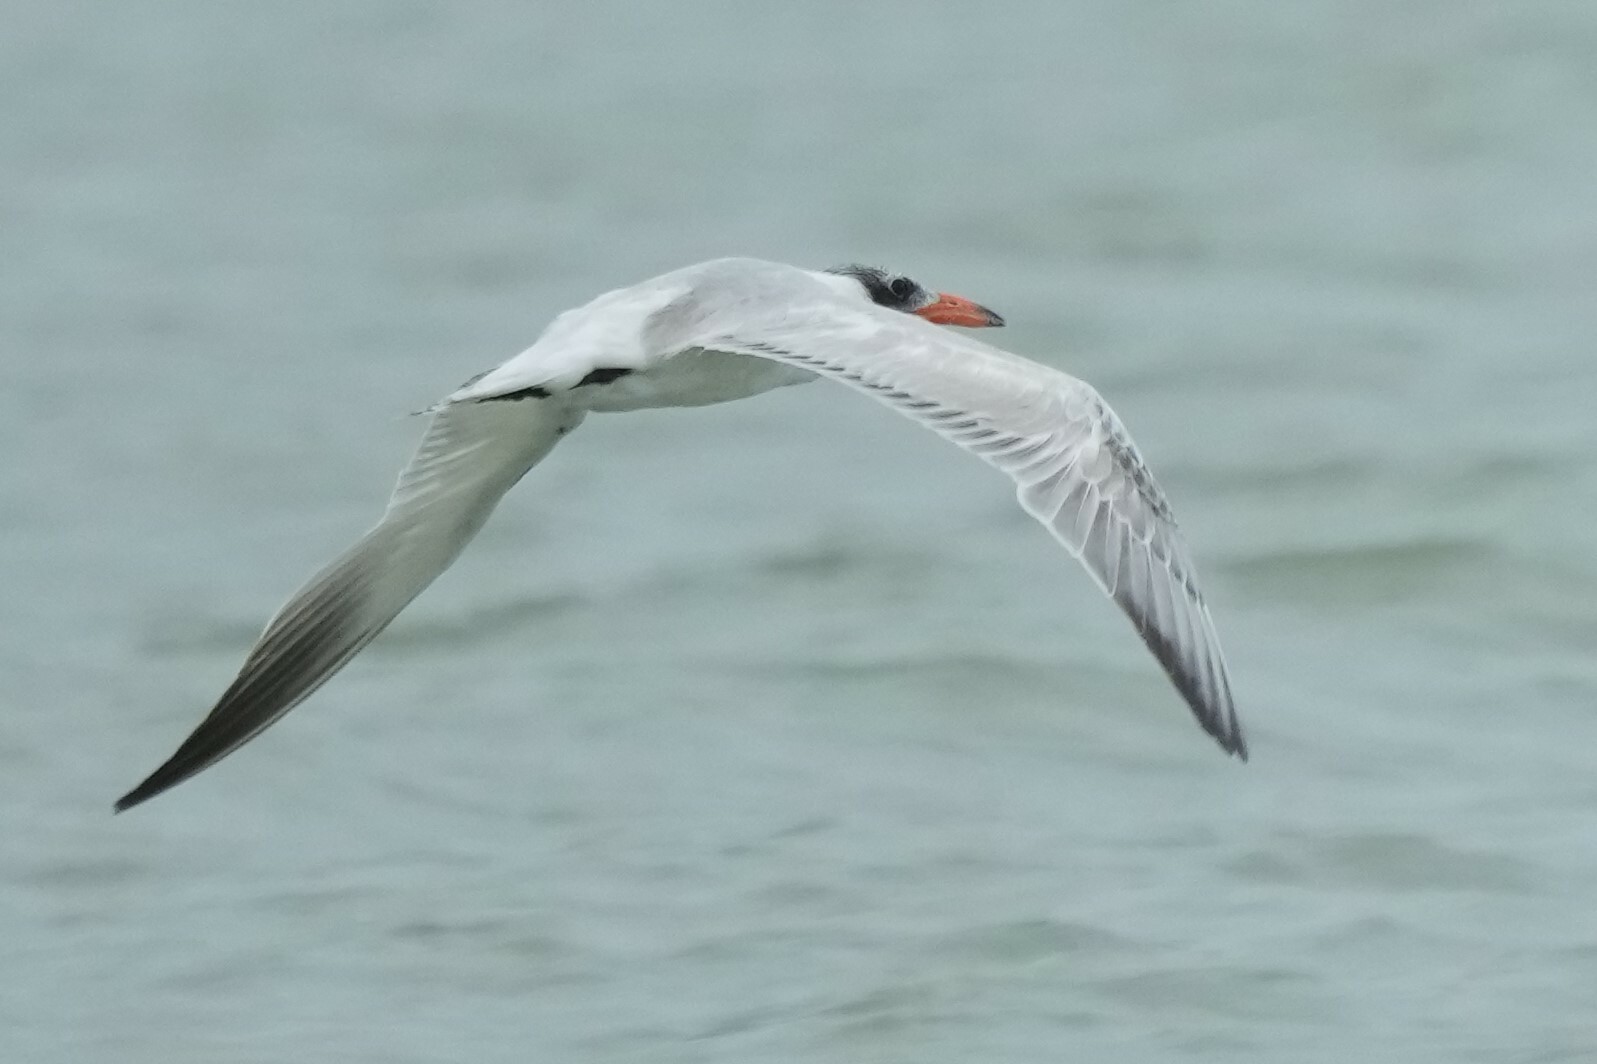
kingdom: Animalia
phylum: Chordata
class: Aves
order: Charadriiformes
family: Laridae
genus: Hydroprogne
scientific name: Hydroprogne caspia
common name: Caspian tern
